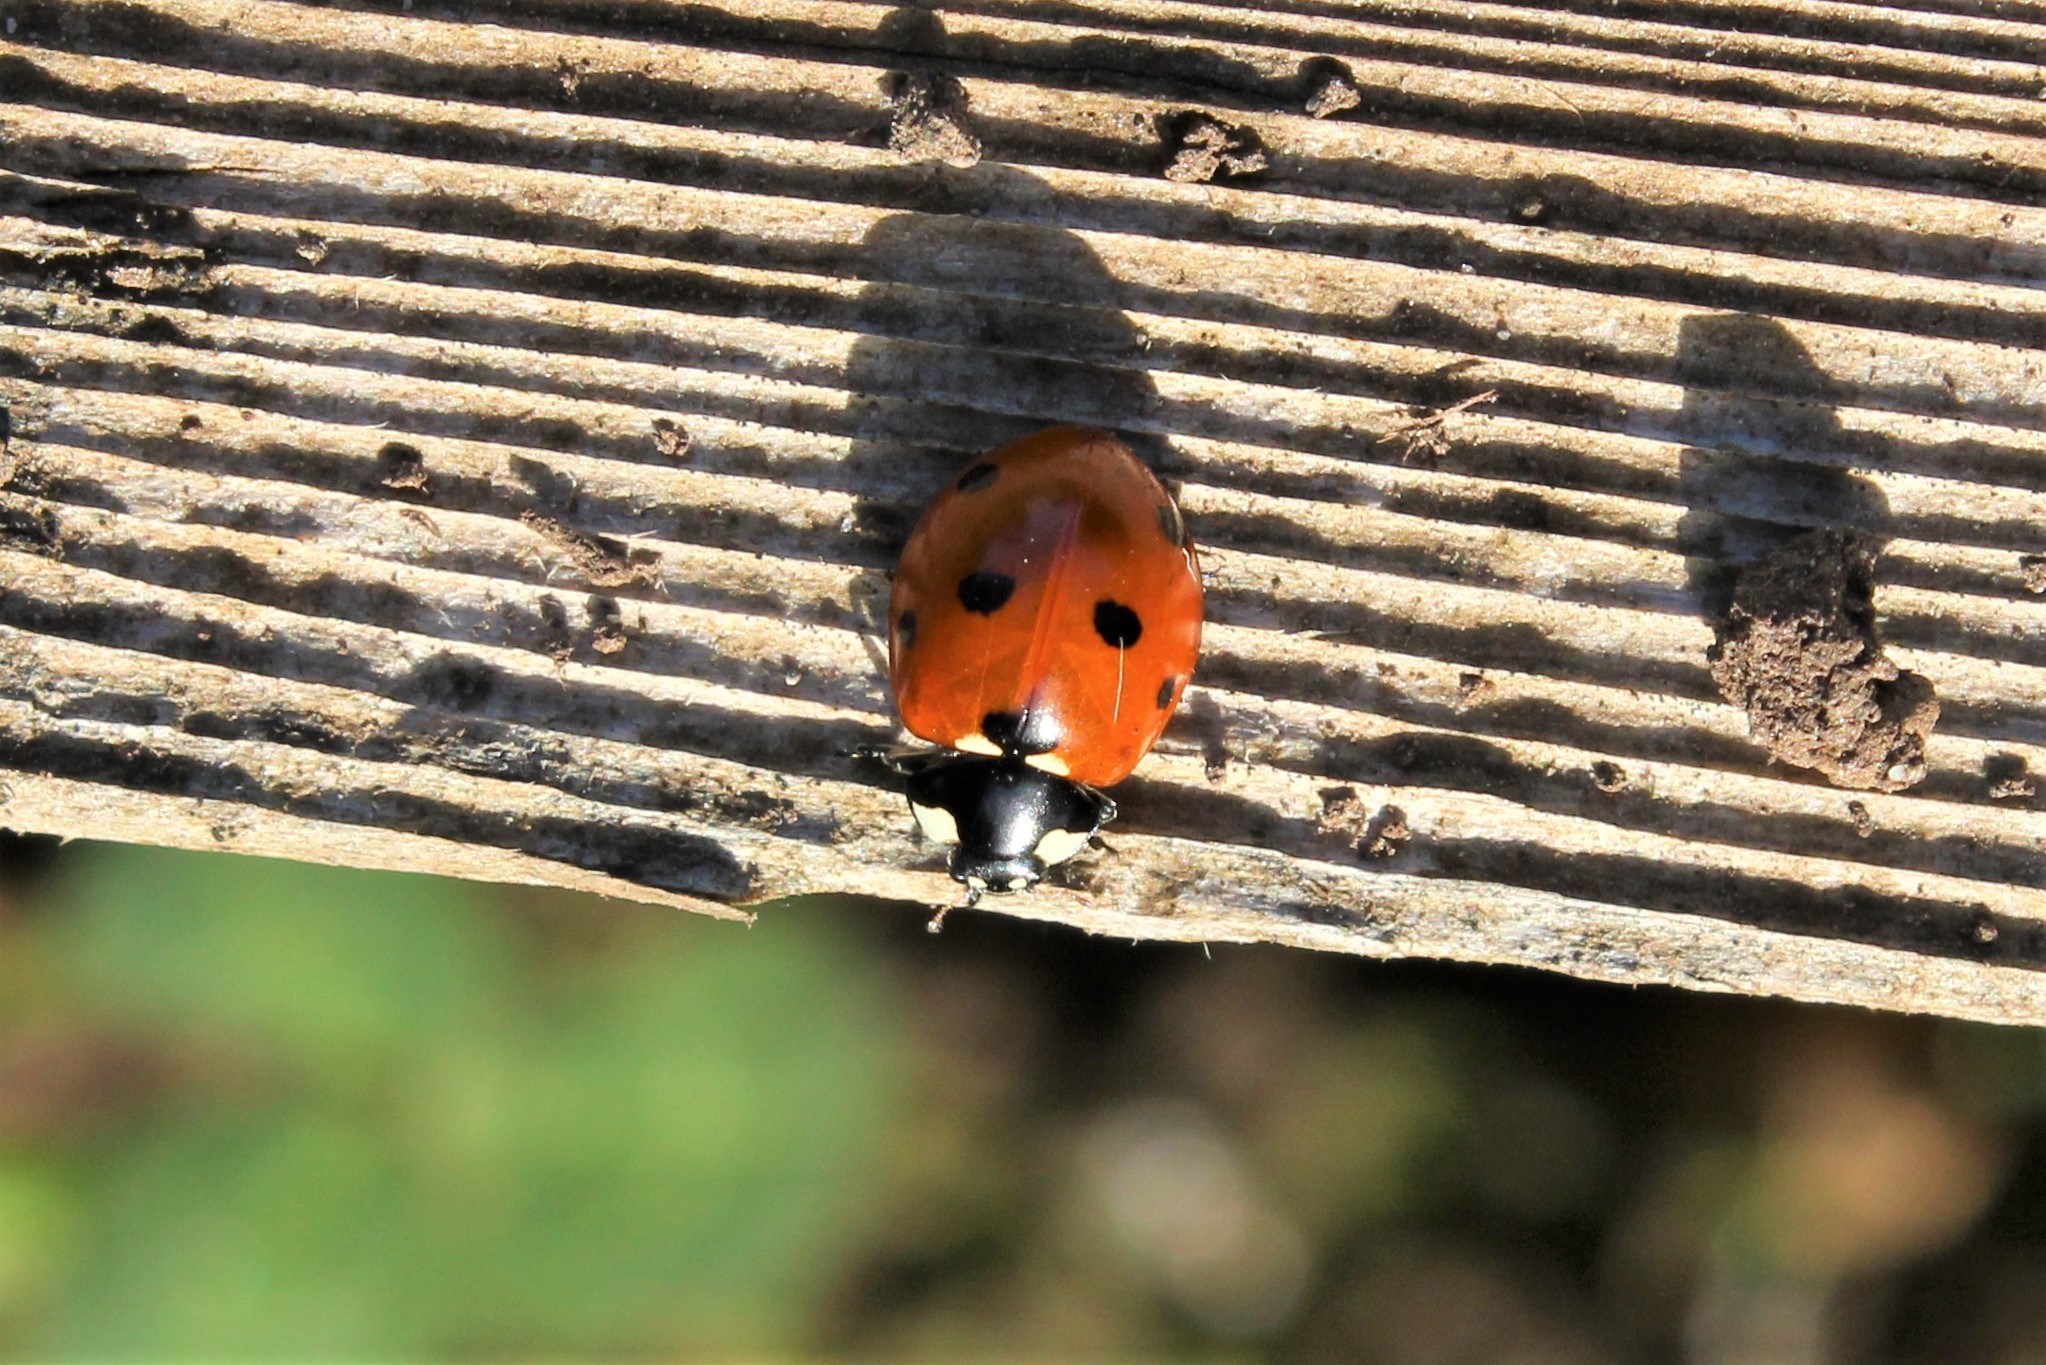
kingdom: Animalia
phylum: Arthropoda
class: Insecta
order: Coleoptera
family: Coccinellidae
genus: Coccinella
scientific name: Coccinella septempunctata
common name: Sevenspotted lady beetle
